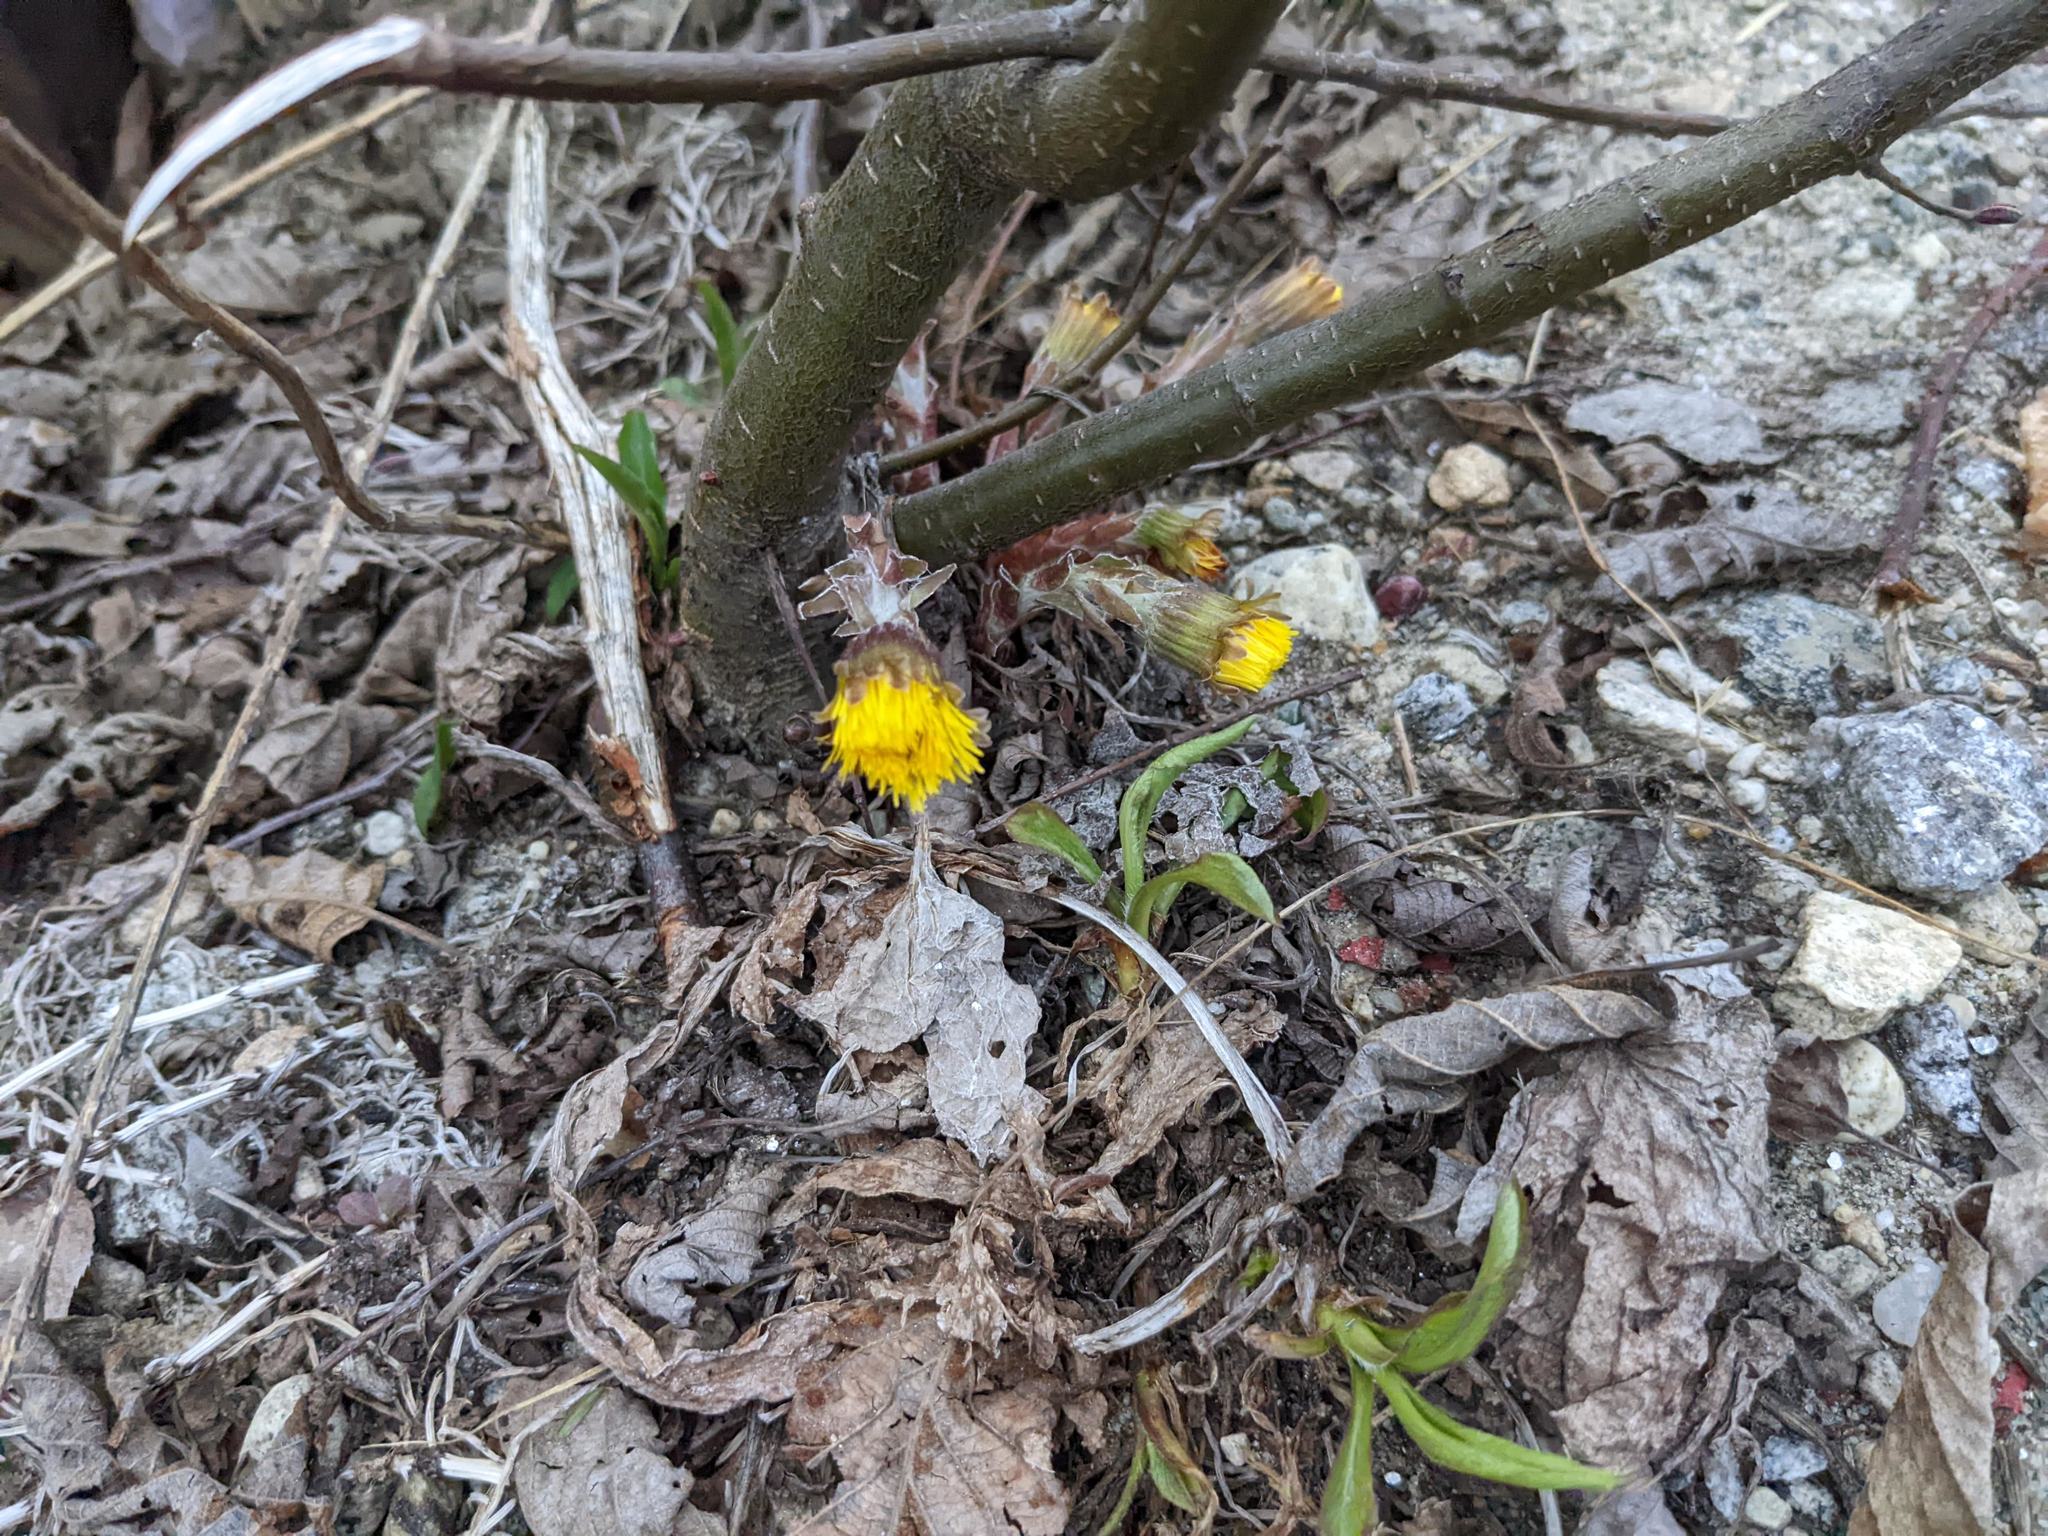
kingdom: Plantae
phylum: Tracheophyta
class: Magnoliopsida
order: Asterales
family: Asteraceae
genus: Tussilago
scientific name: Tussilago farfara
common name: Coltsfoot
